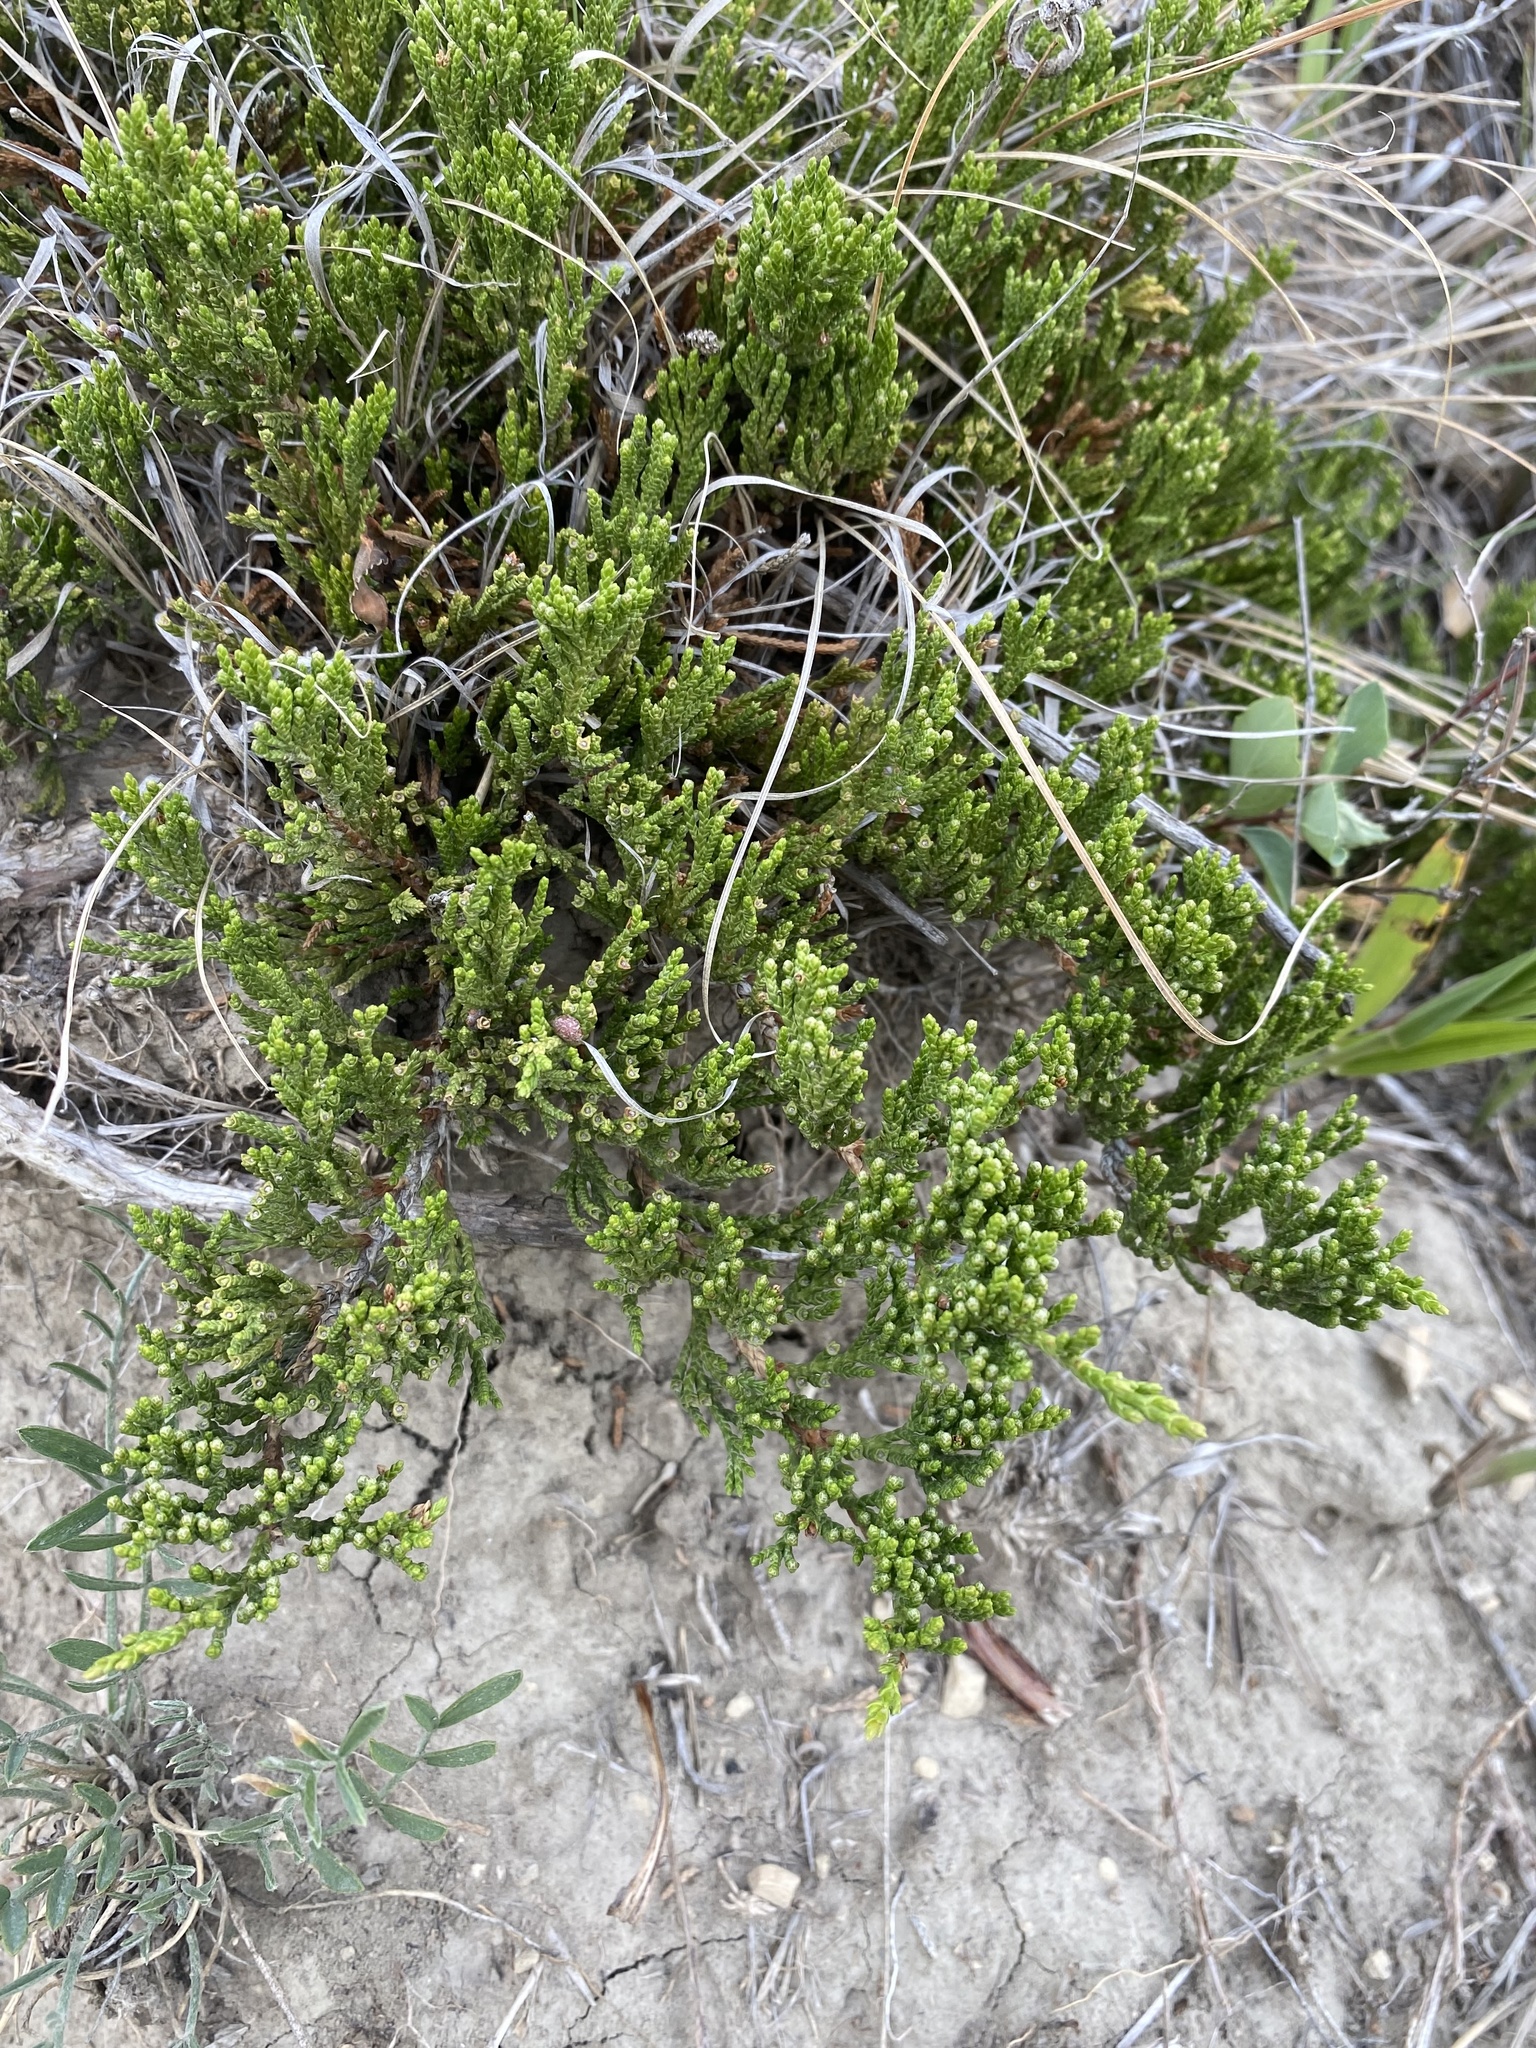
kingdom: Plantae
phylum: Tracheophyta
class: Pinopsida
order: Pinales
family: Cupressaceae
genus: Juniperus
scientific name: Juniperus horizontalis
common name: Creeping juniper
